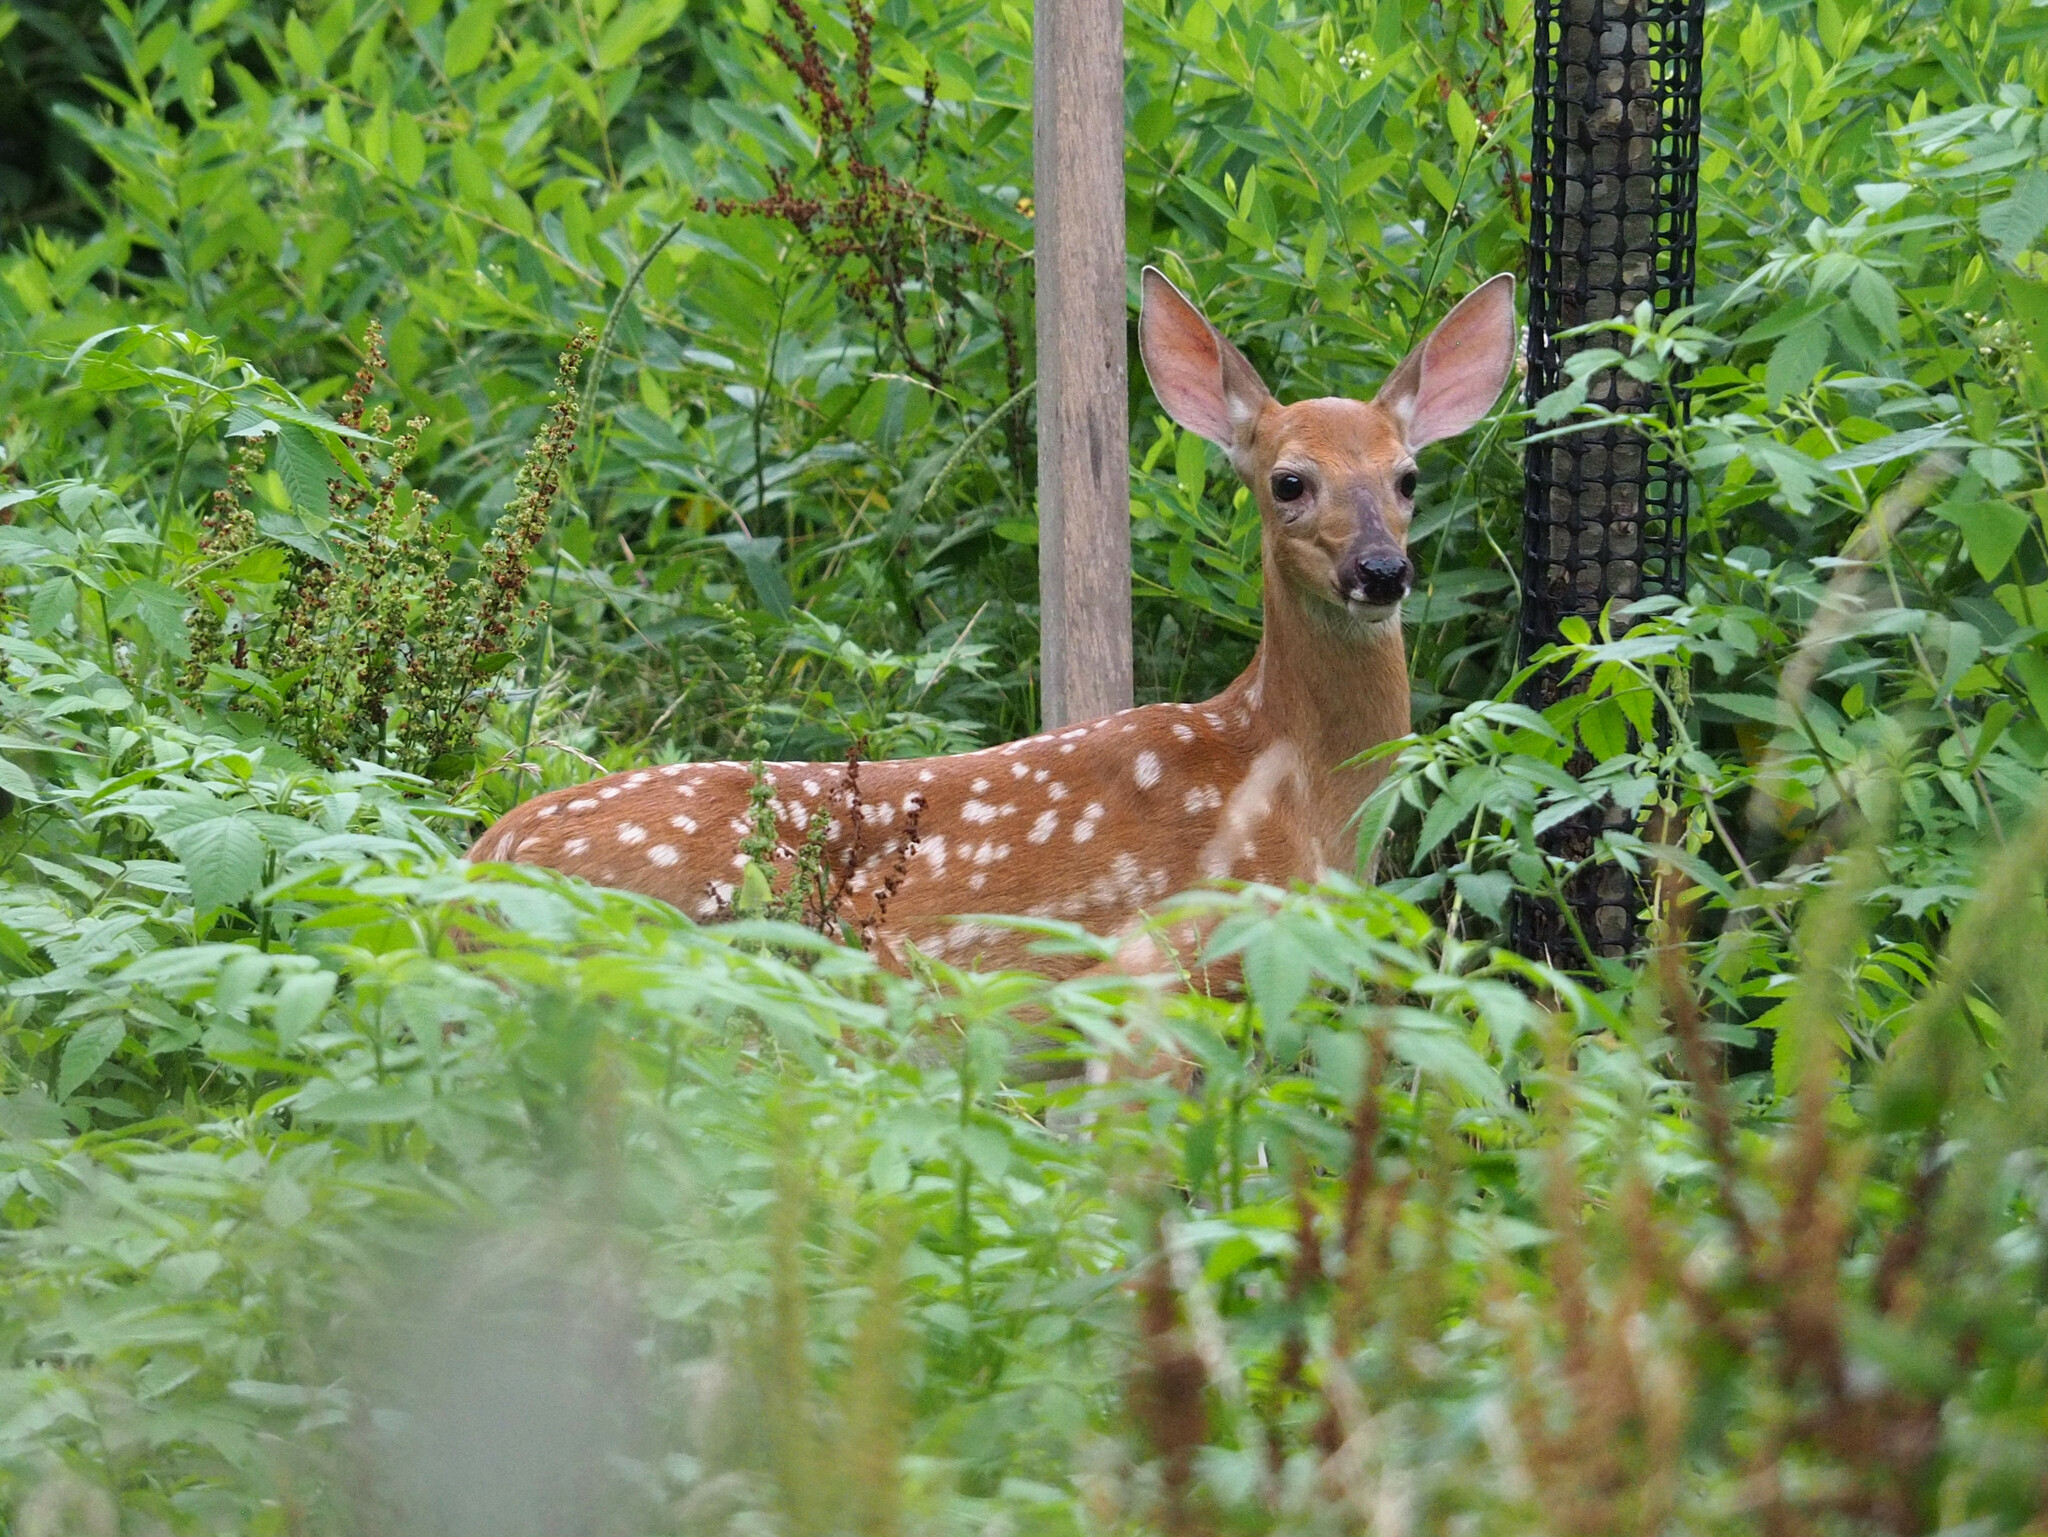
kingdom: Animalia
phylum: Chordata
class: Mammalia
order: Artiodactyla
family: Cervidae
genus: Odocoileus
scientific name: Odocoileus virginianus
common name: White-tailed deer
